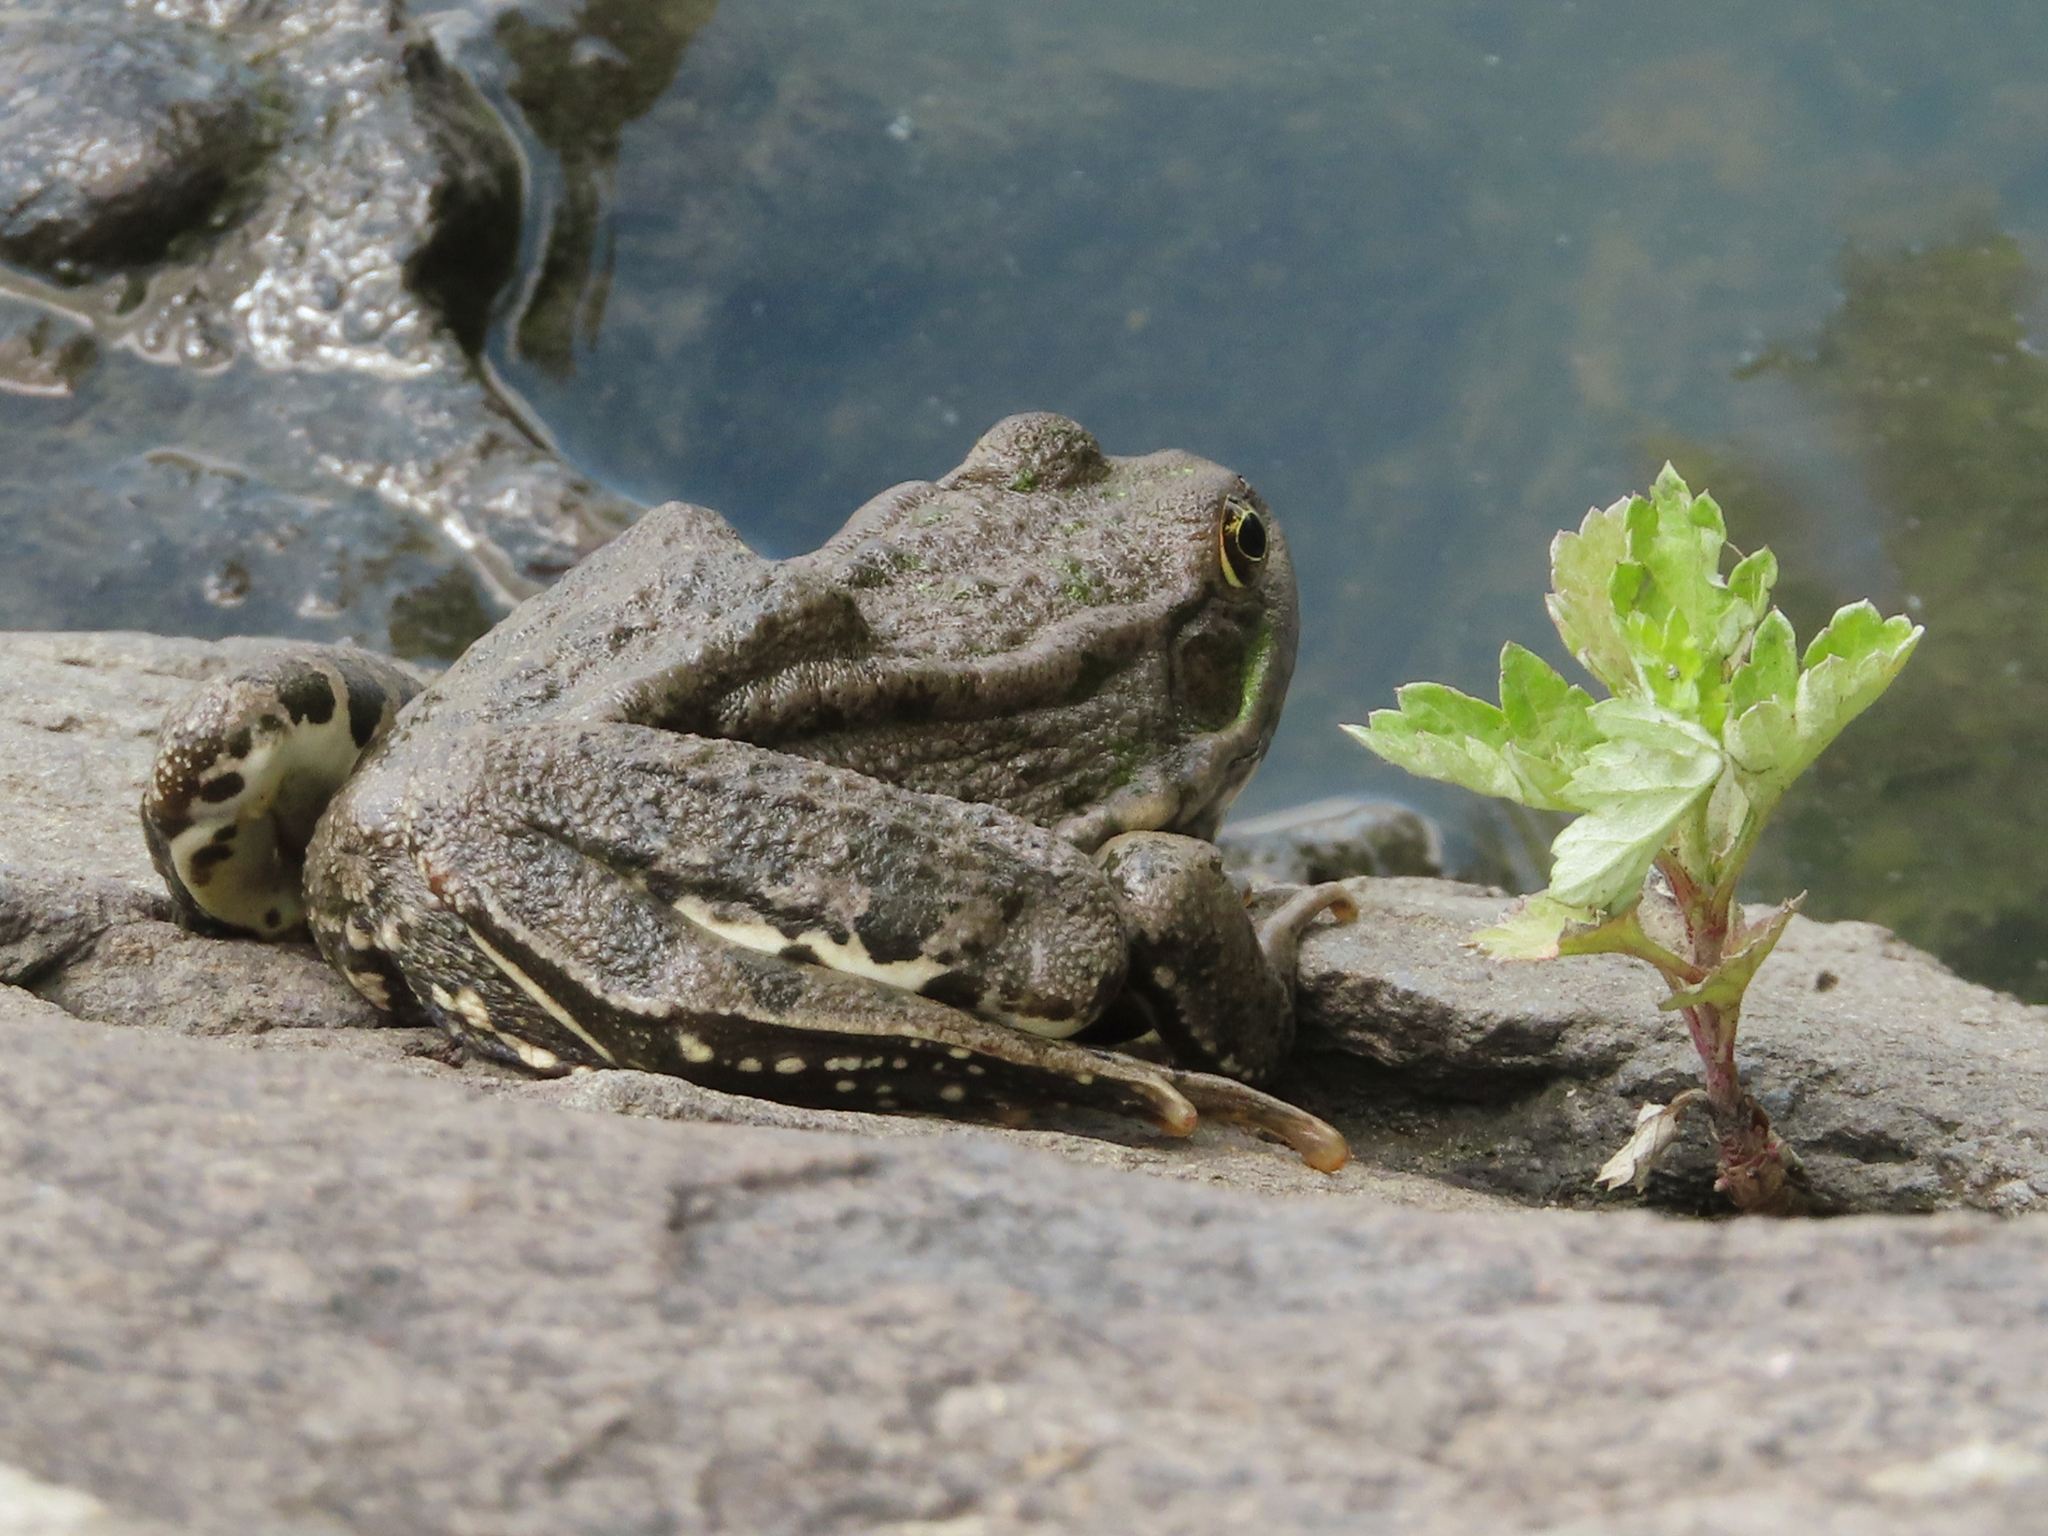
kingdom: Animalia
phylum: Chordata
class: Amphibia
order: Anura
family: Ranidae
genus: Pelophylax
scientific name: Pelophylax ridibundus
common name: Marsh frog
